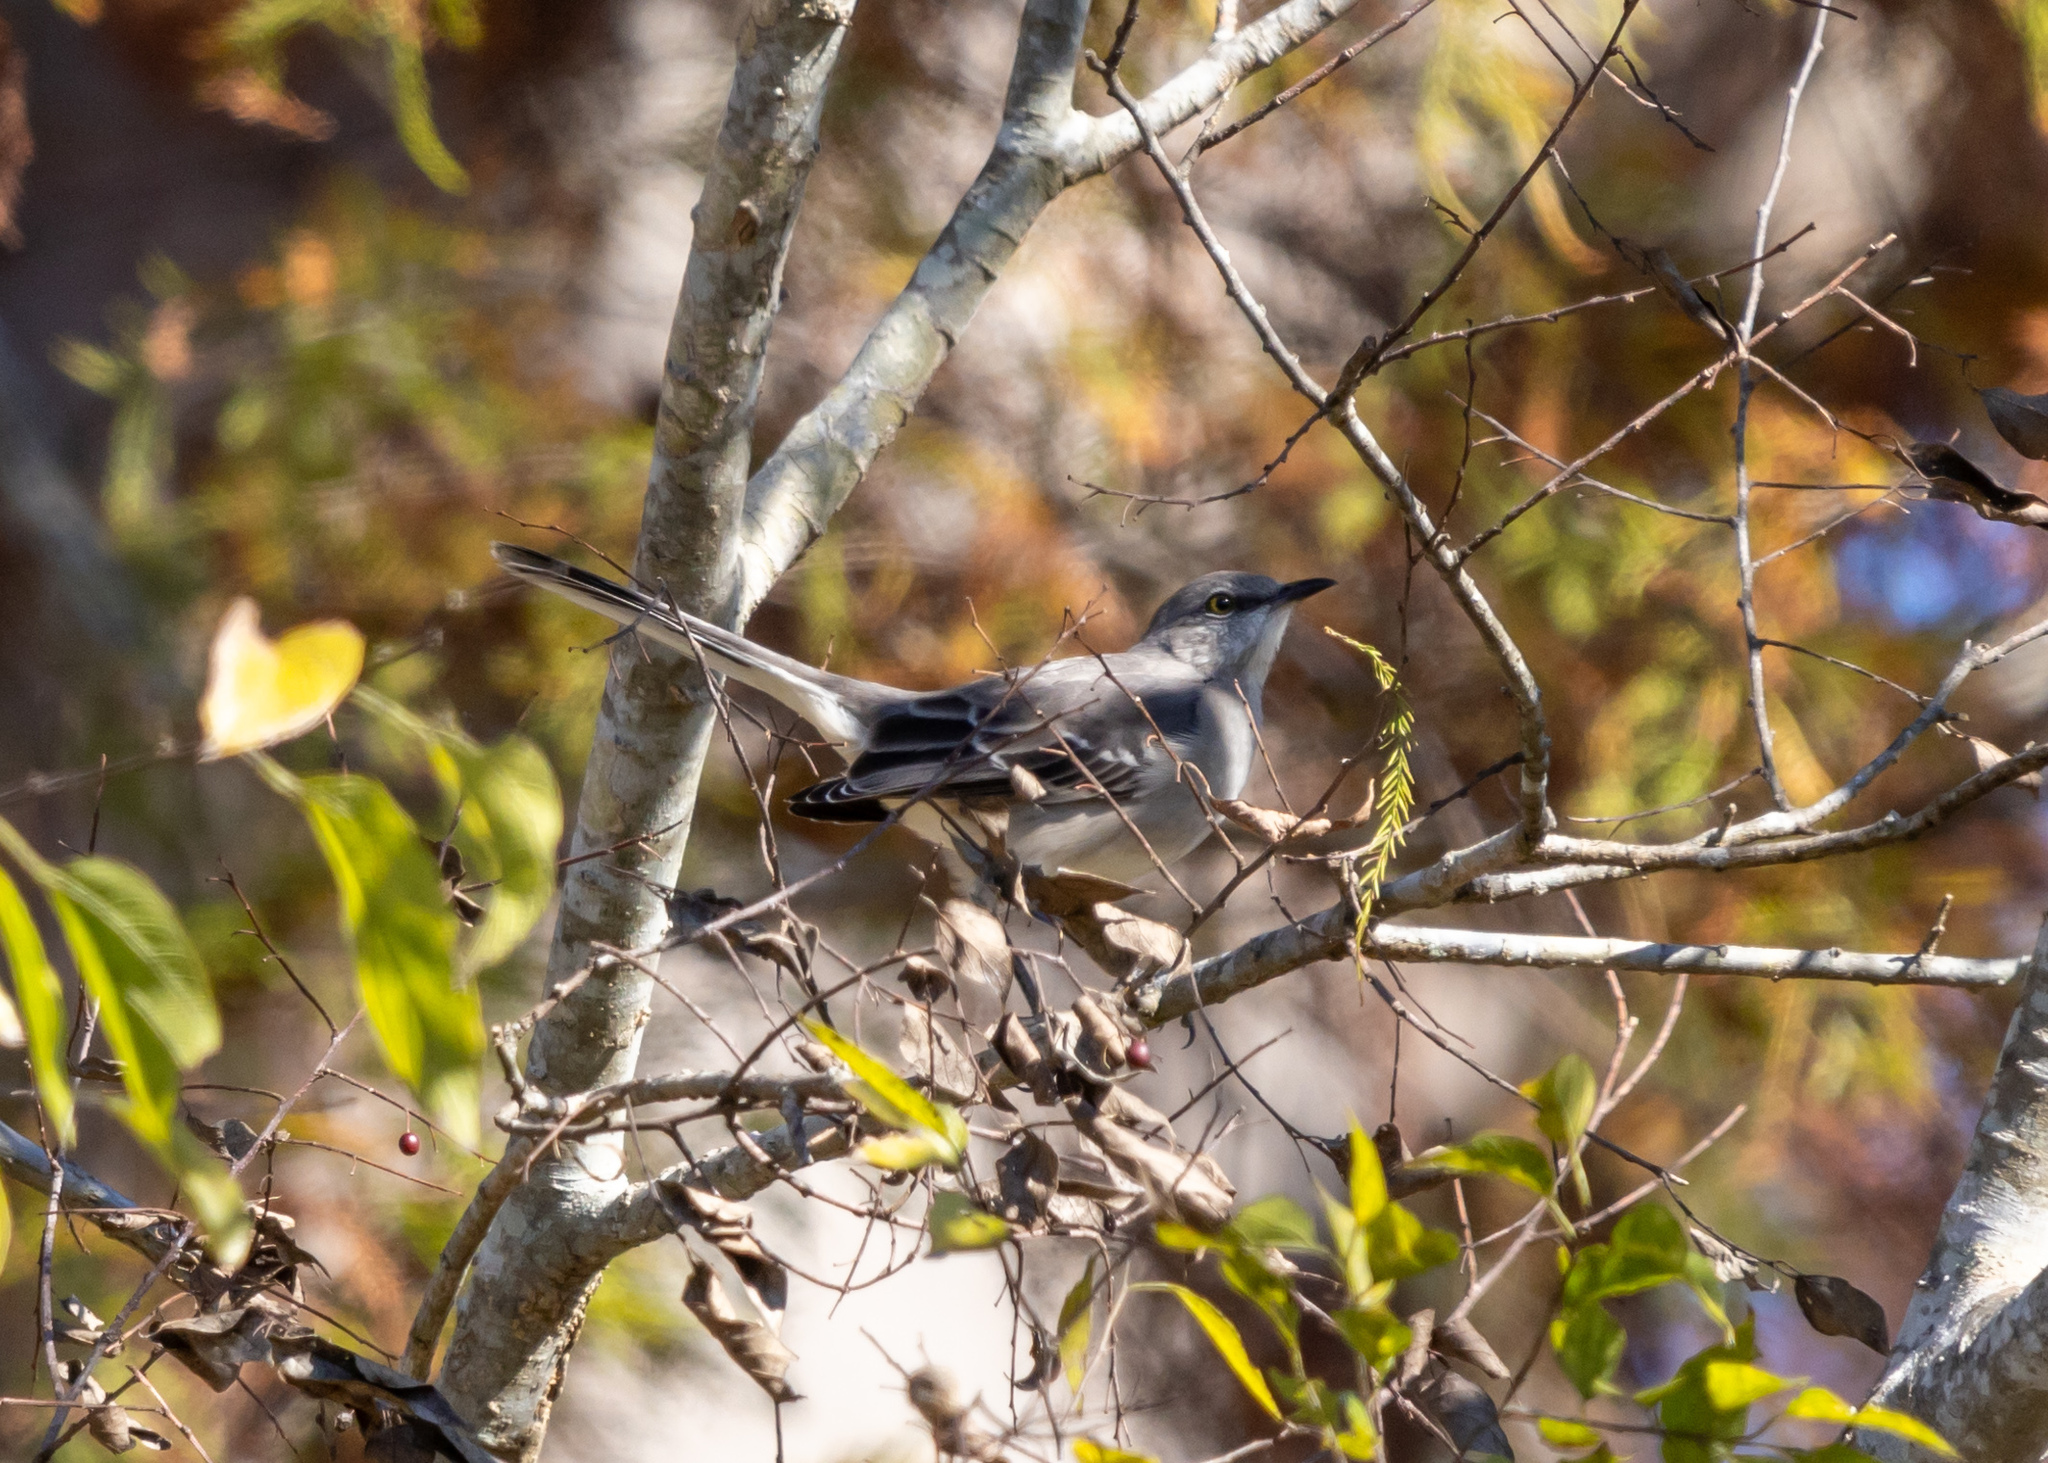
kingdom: Animalia
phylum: Chordata
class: Aves
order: Passeriformes
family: Mimidae
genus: Mimus
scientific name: Mimus polyglottos
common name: Northern mockingbird
